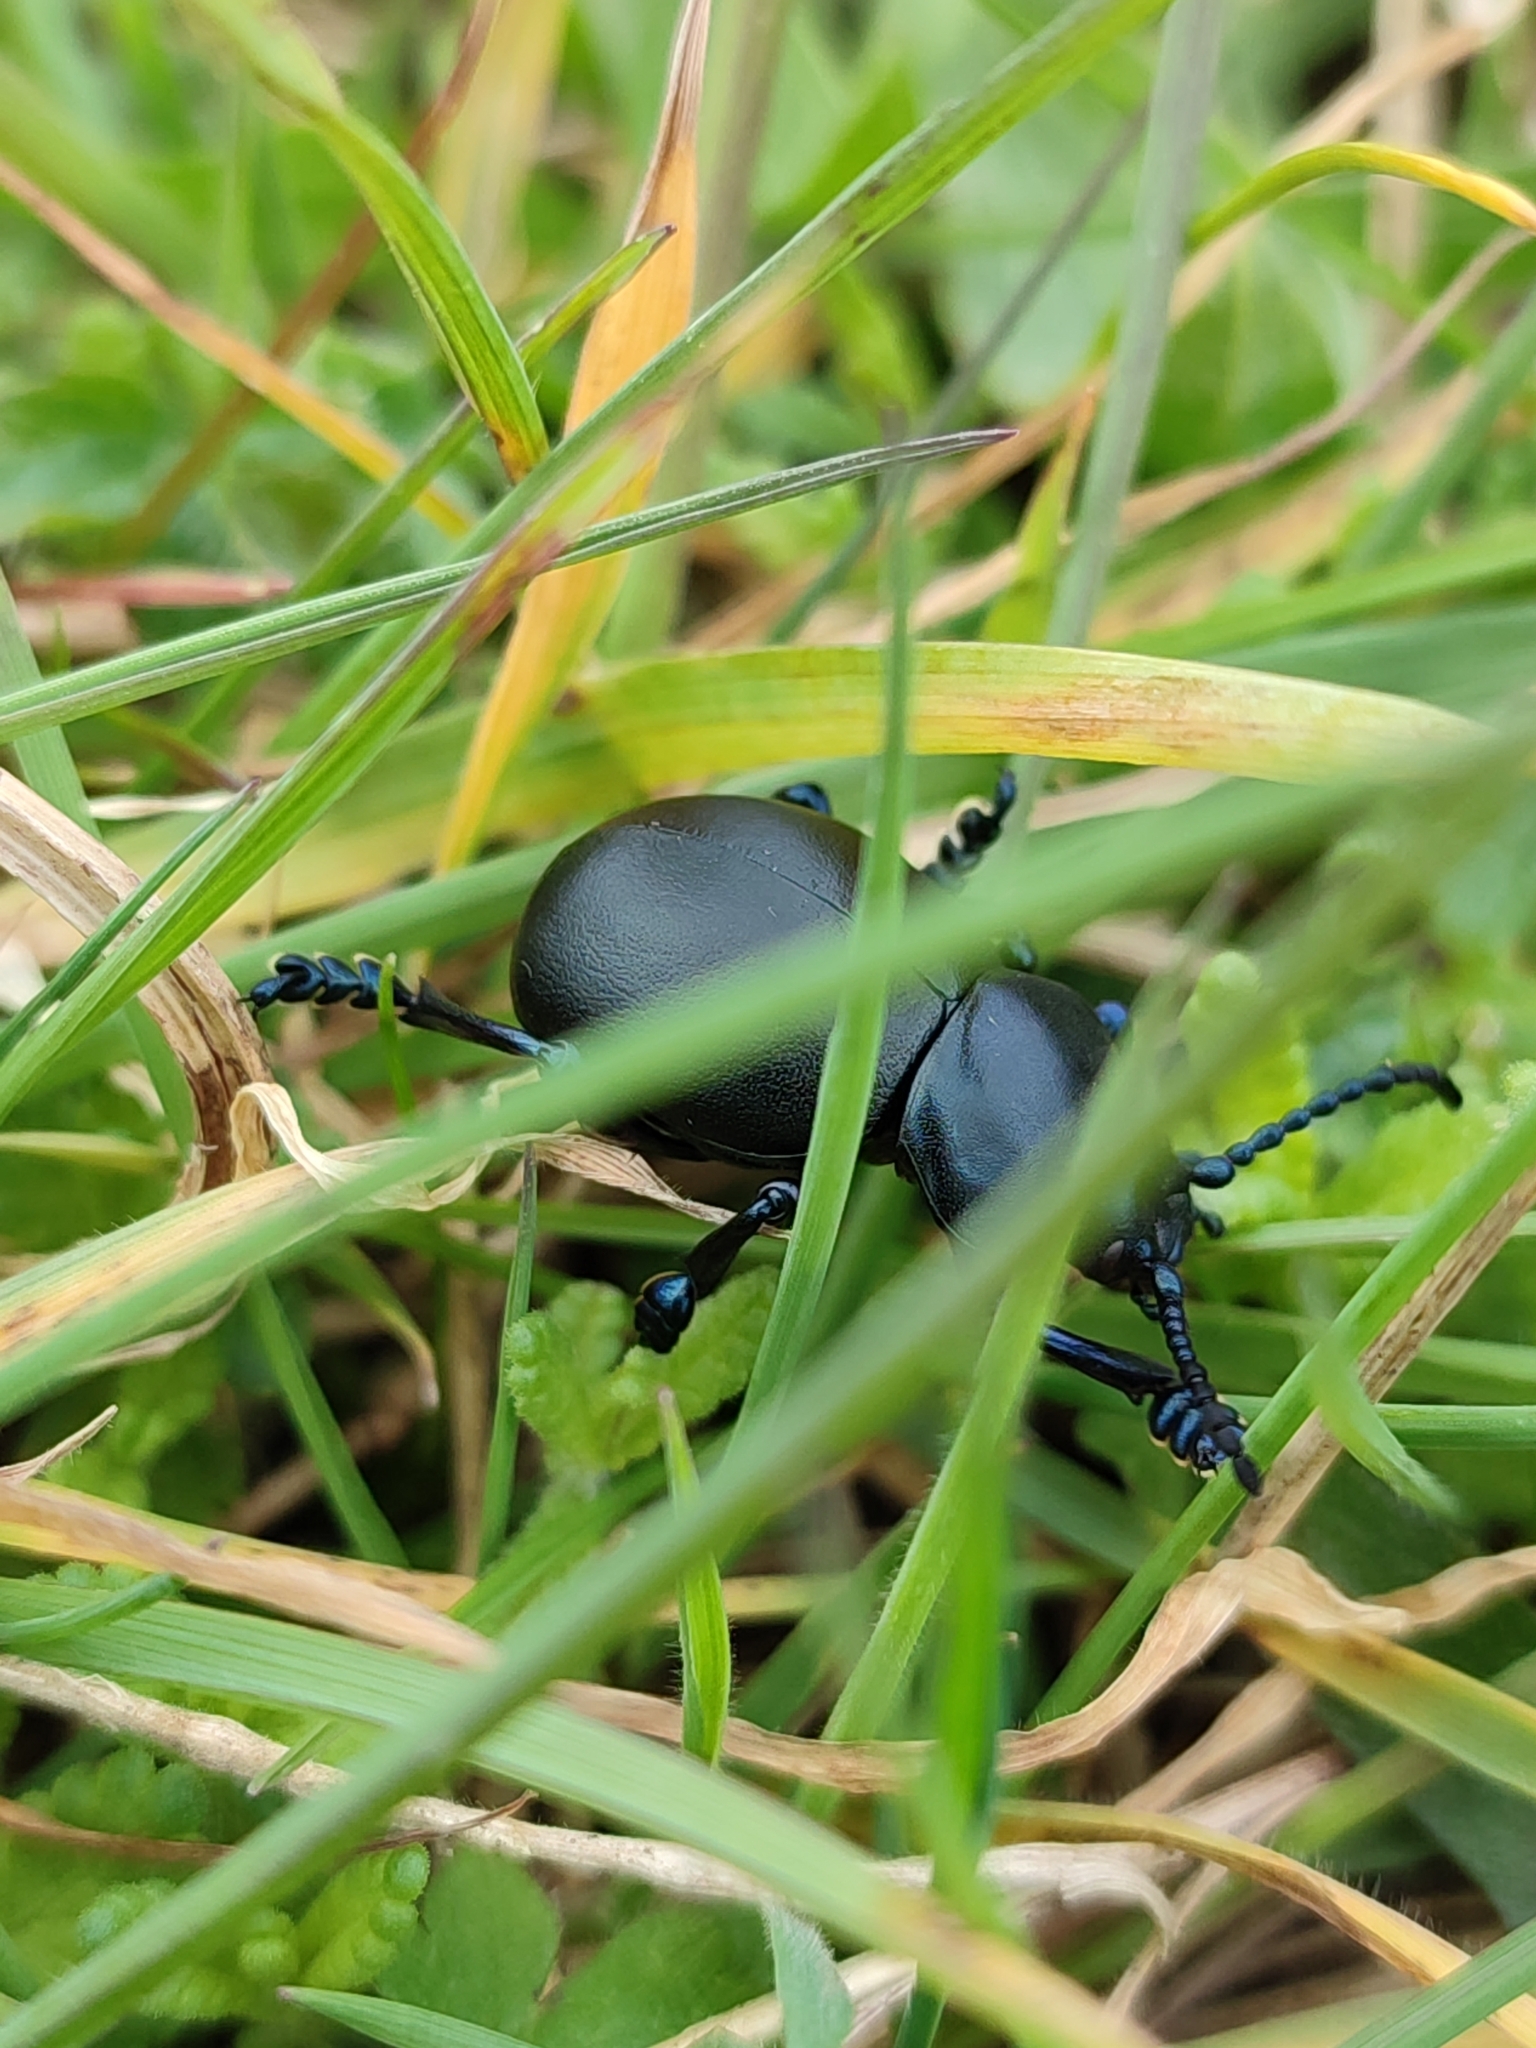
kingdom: Animalia
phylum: Arthropoda
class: Insecta
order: Coleoptera
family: Chrysomelidae
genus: Timarcha
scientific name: Timarcha tenebricosa
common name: Bloody-nosed beetle
